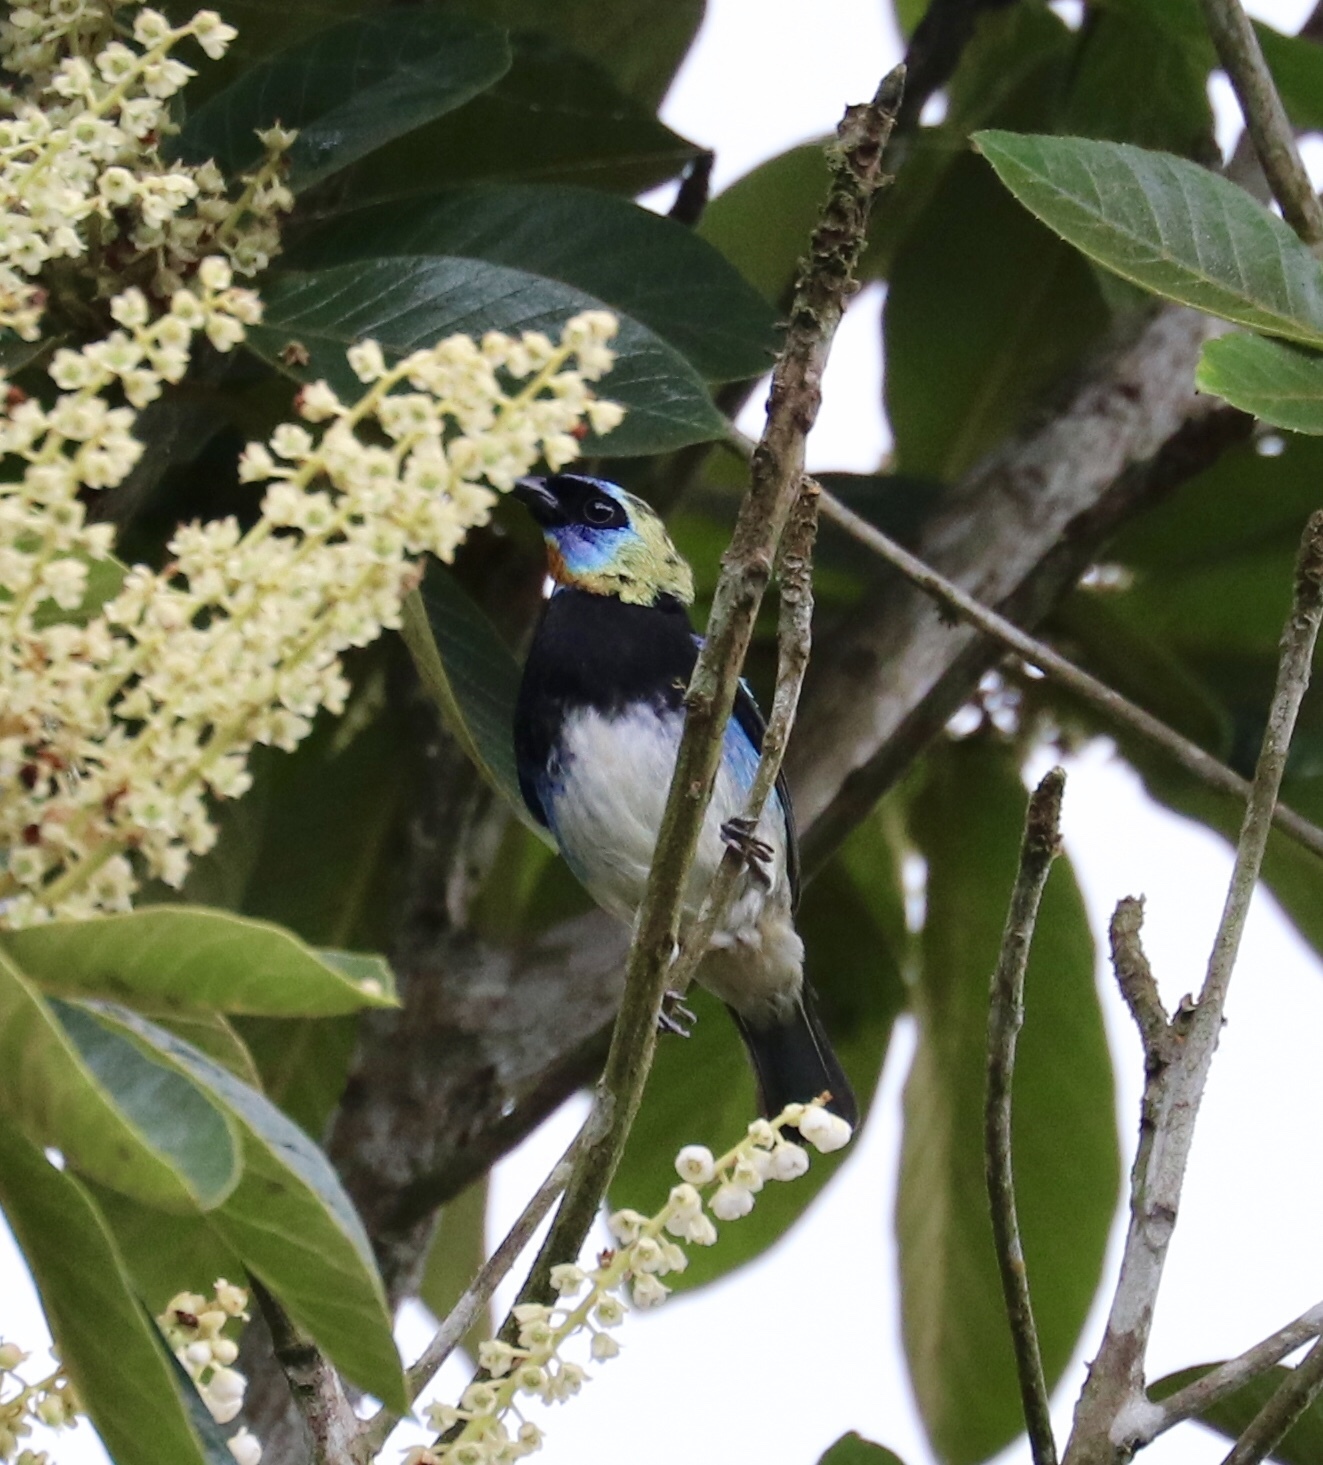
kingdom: Animalia
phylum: Chordata
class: Aves
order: Passeriformes
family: Thraupidae
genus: Stilpnia
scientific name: Stilpnia larvata
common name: Golden-hooded tanager
